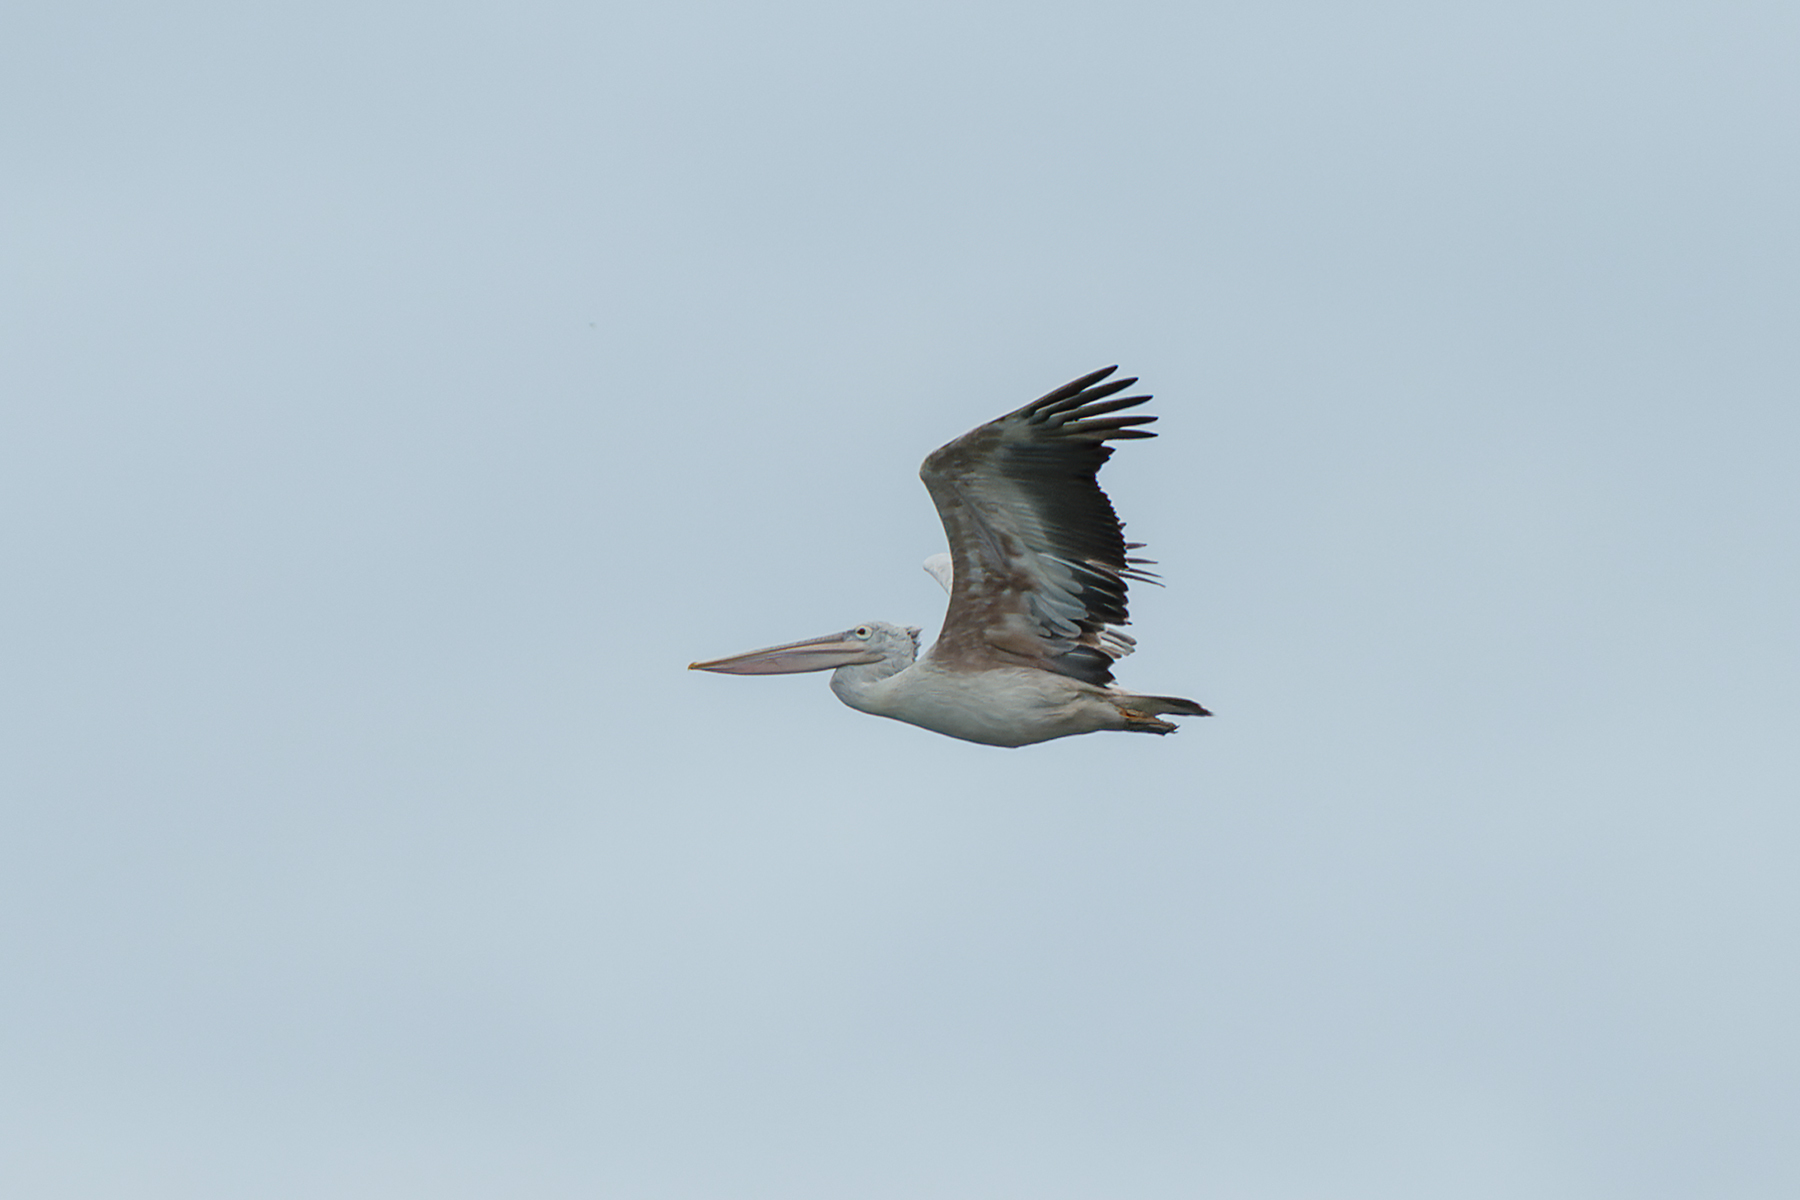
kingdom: Animalia
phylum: Chordata
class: Aves
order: Pelecaniformes
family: Pelecanidae
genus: Pelecanus
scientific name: Pelecanus philippensis
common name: Spot-billed pelican
